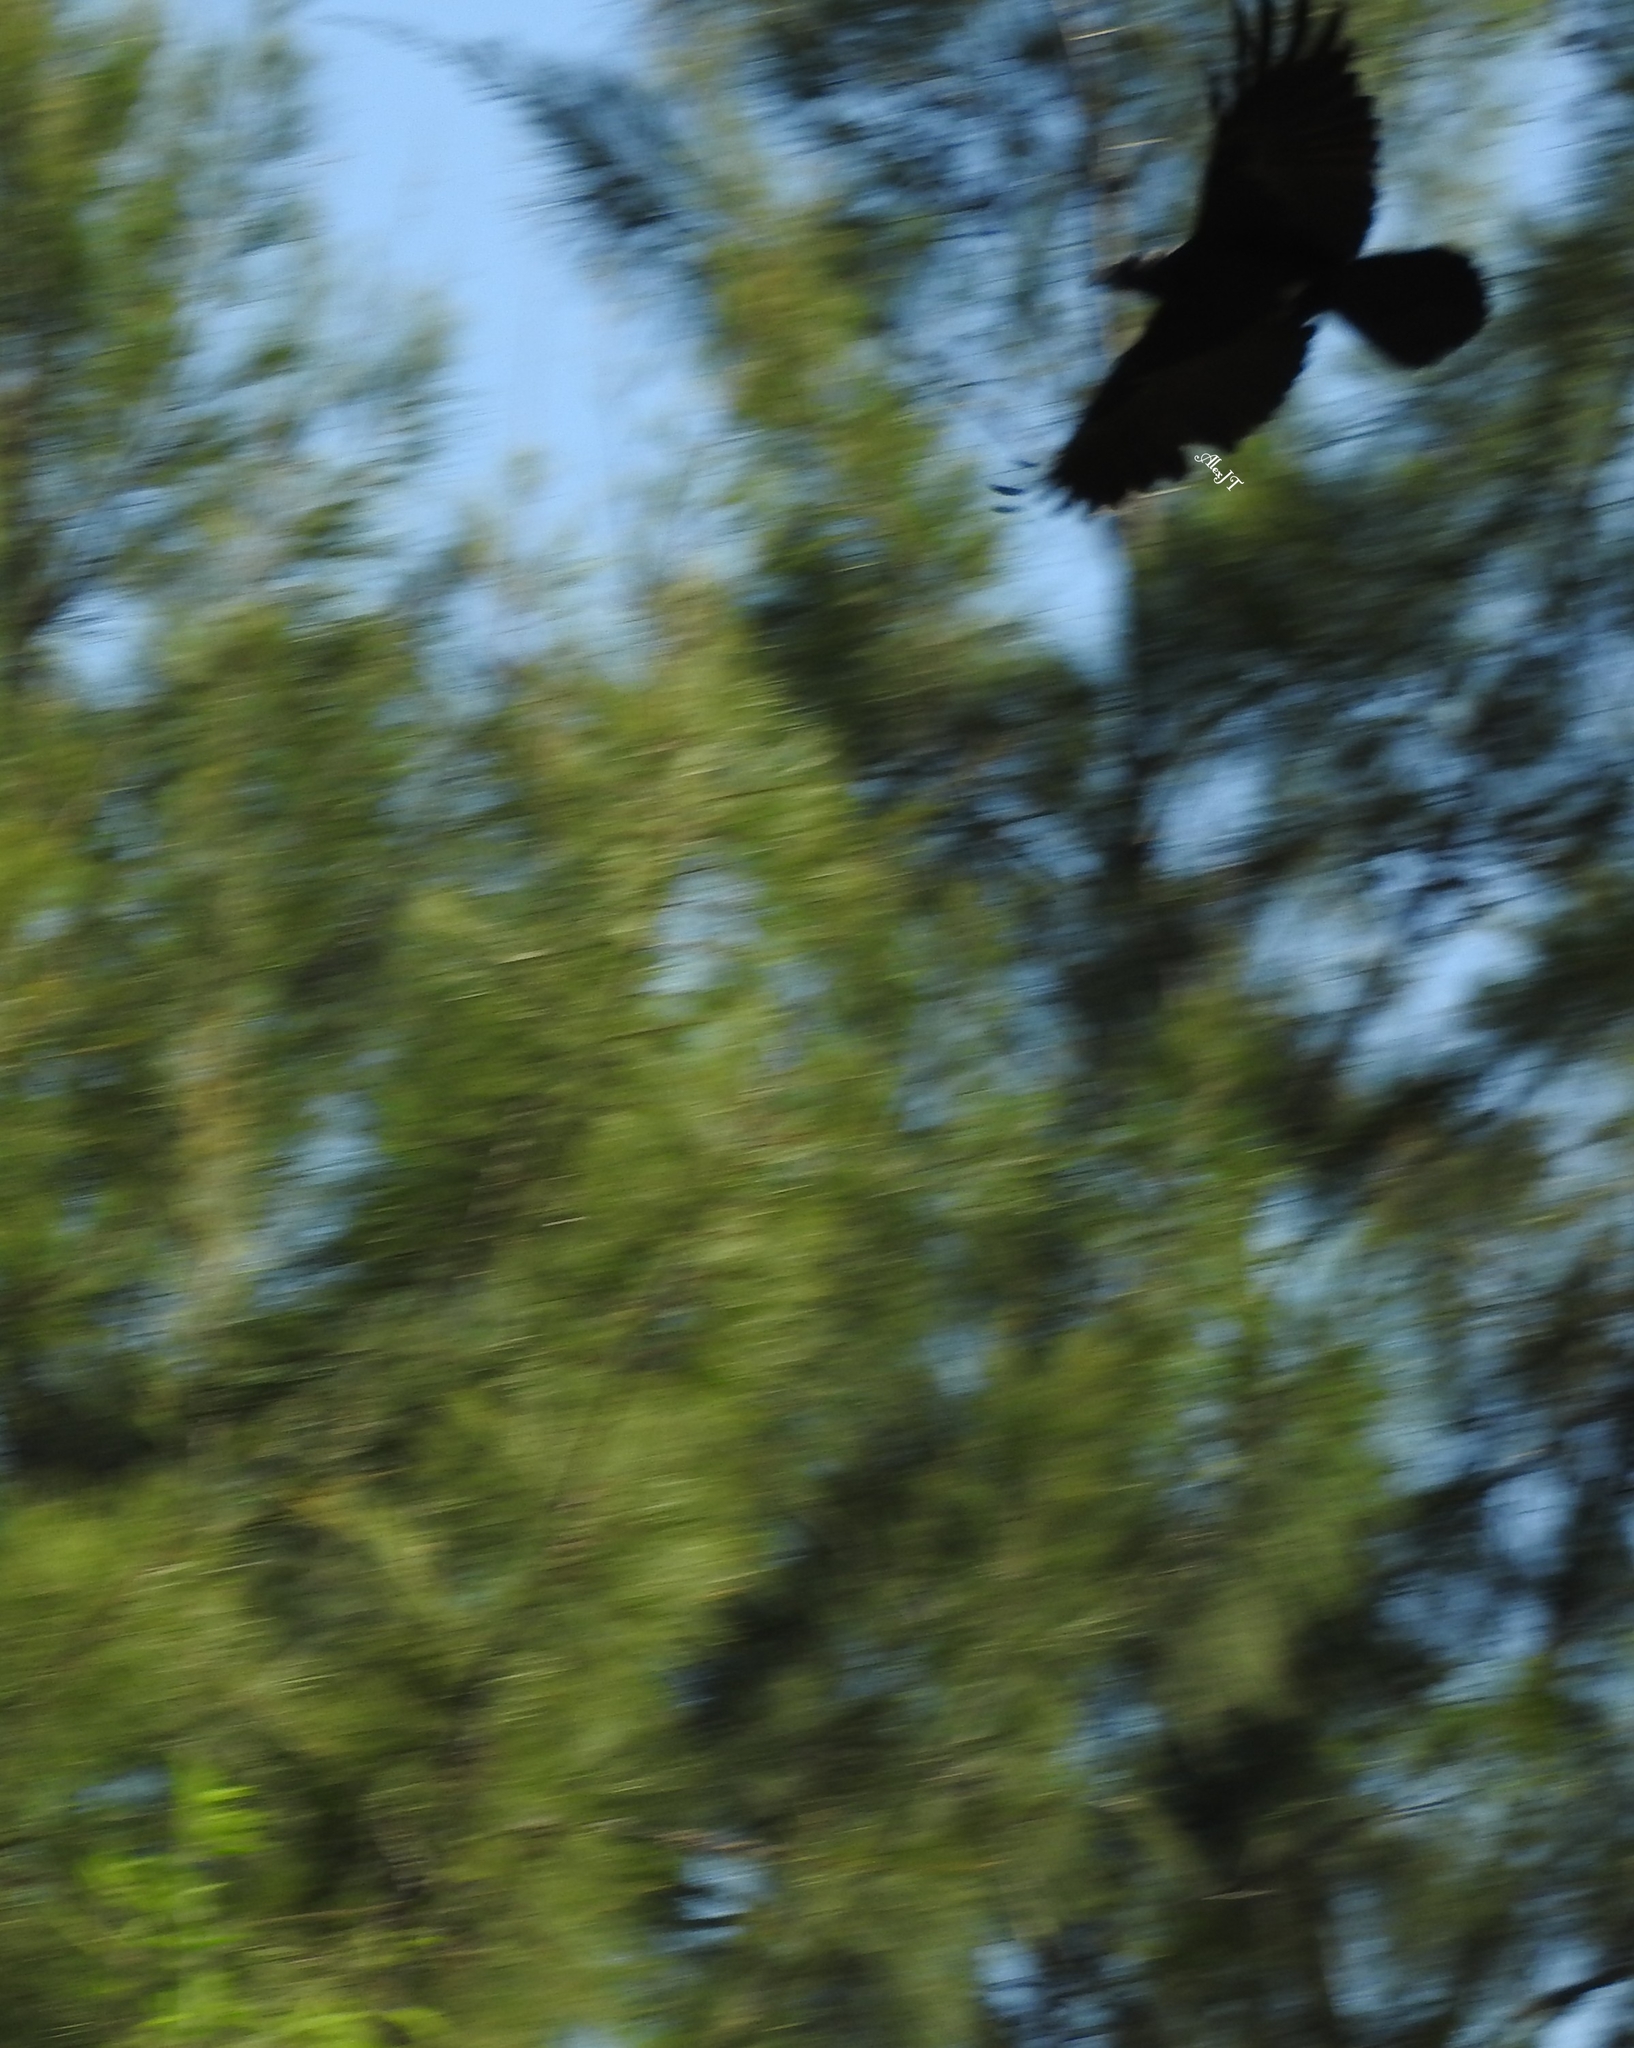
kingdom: Animalia
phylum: Chordata
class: Aves
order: Passeriformes
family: Corvidae
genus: Corvus
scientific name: Corvus corax
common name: Common raven
